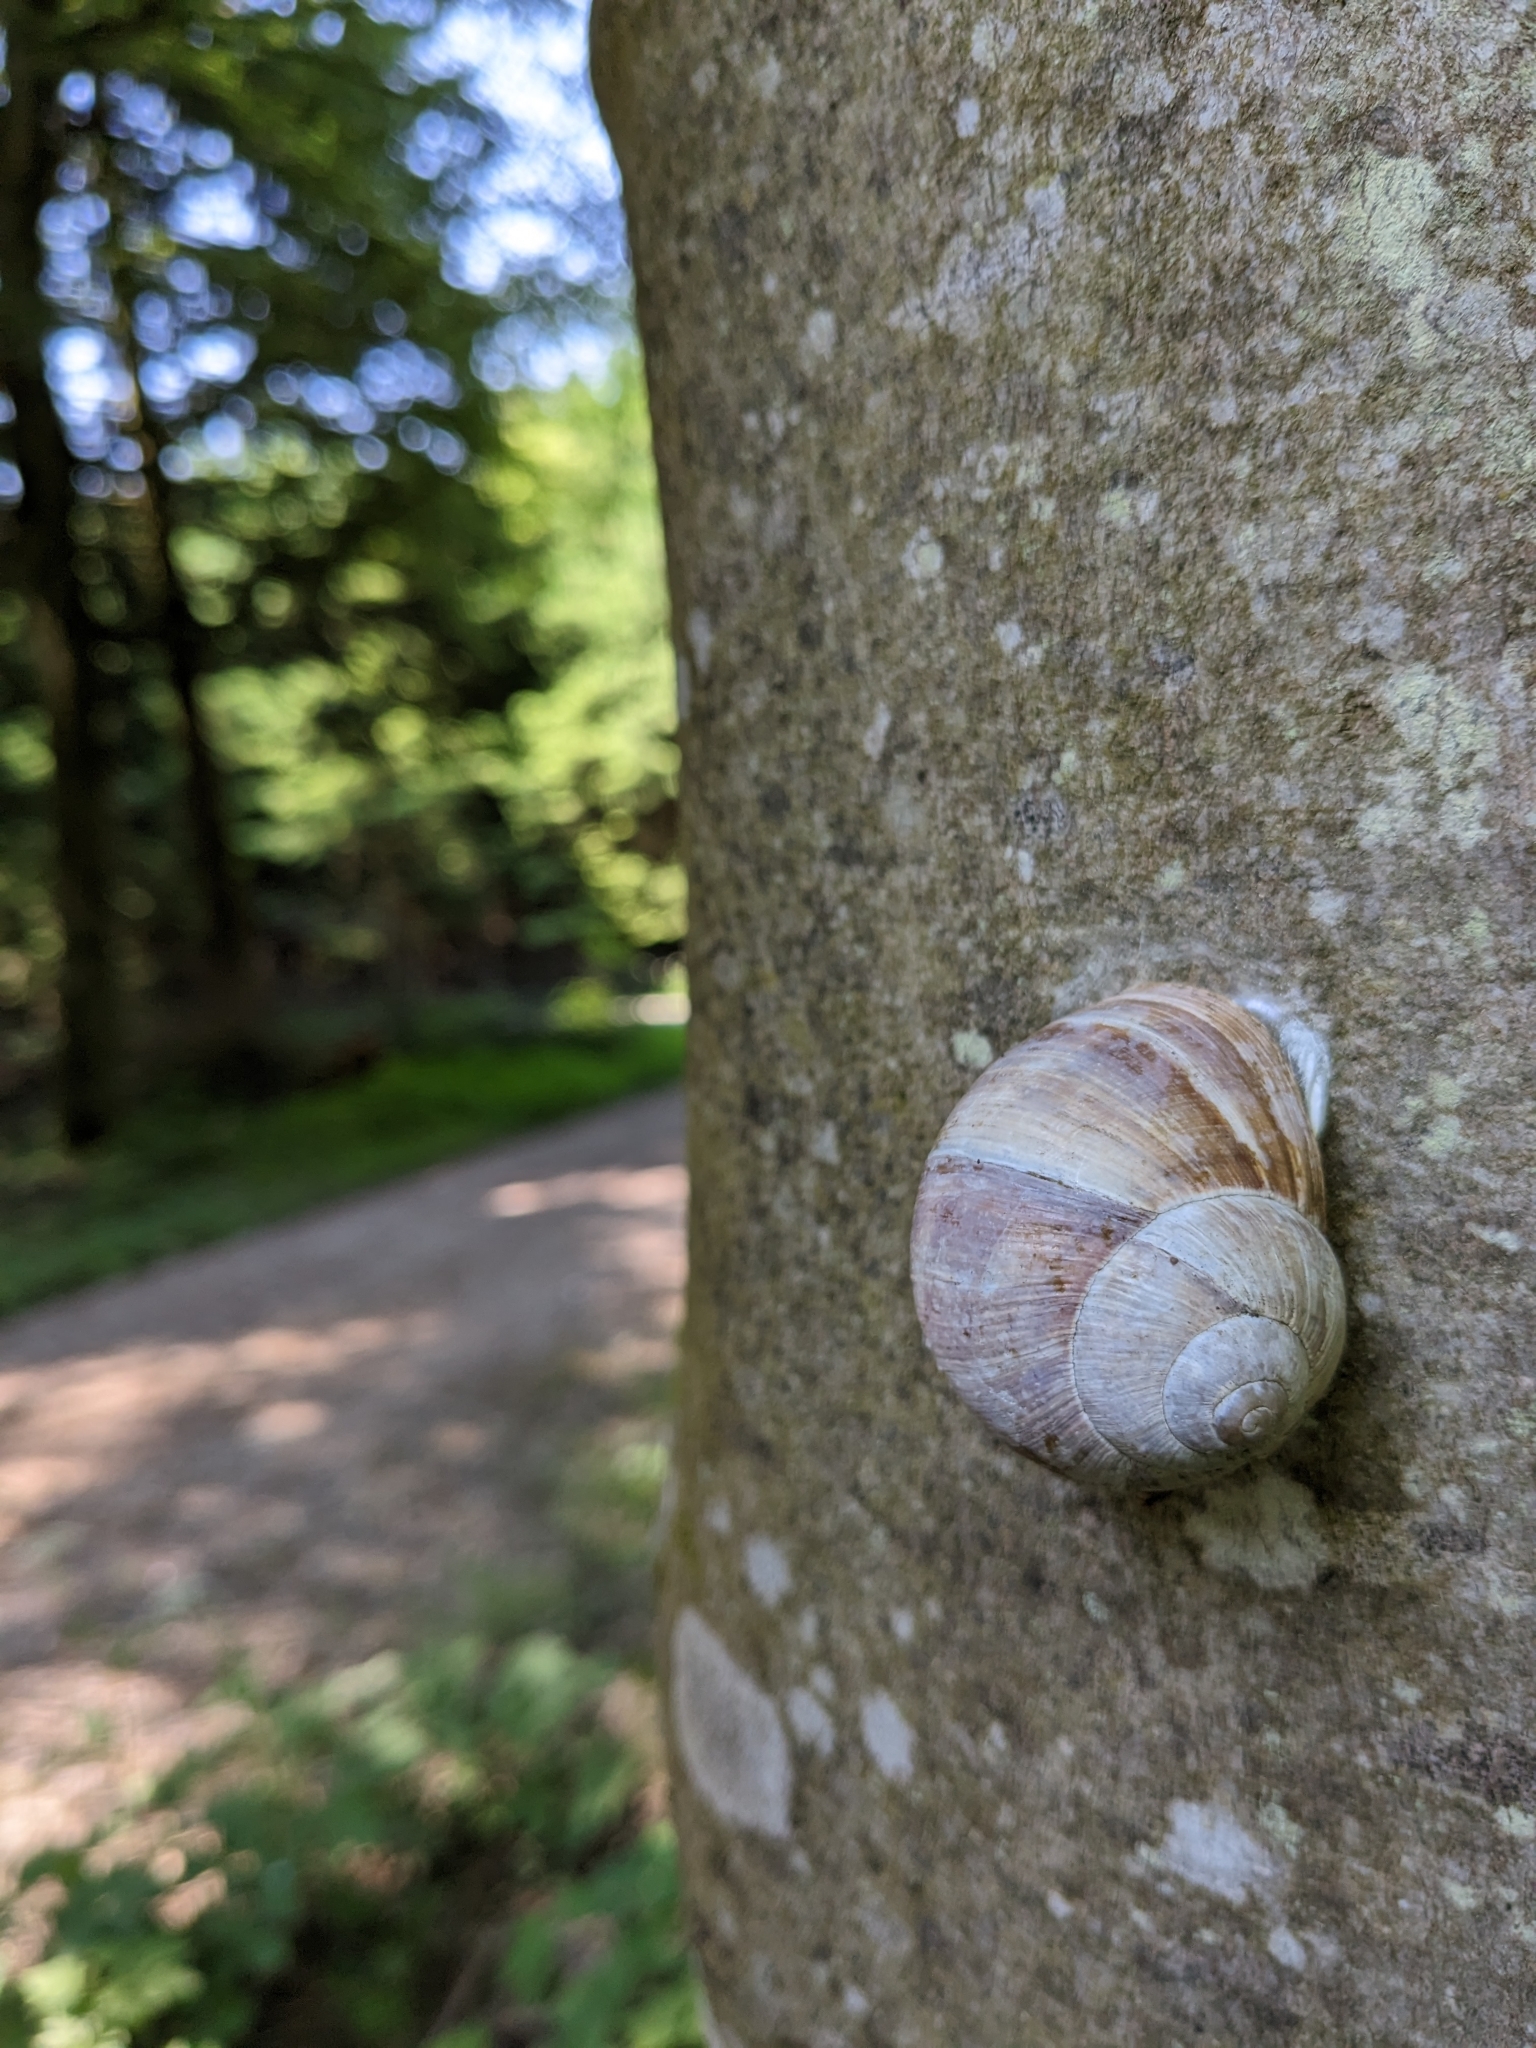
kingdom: Animalia
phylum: Mollusca
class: Gastropoda
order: Stylommatophora
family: Helicidae
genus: Helix
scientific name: Helix pomatia
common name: Roman snail
